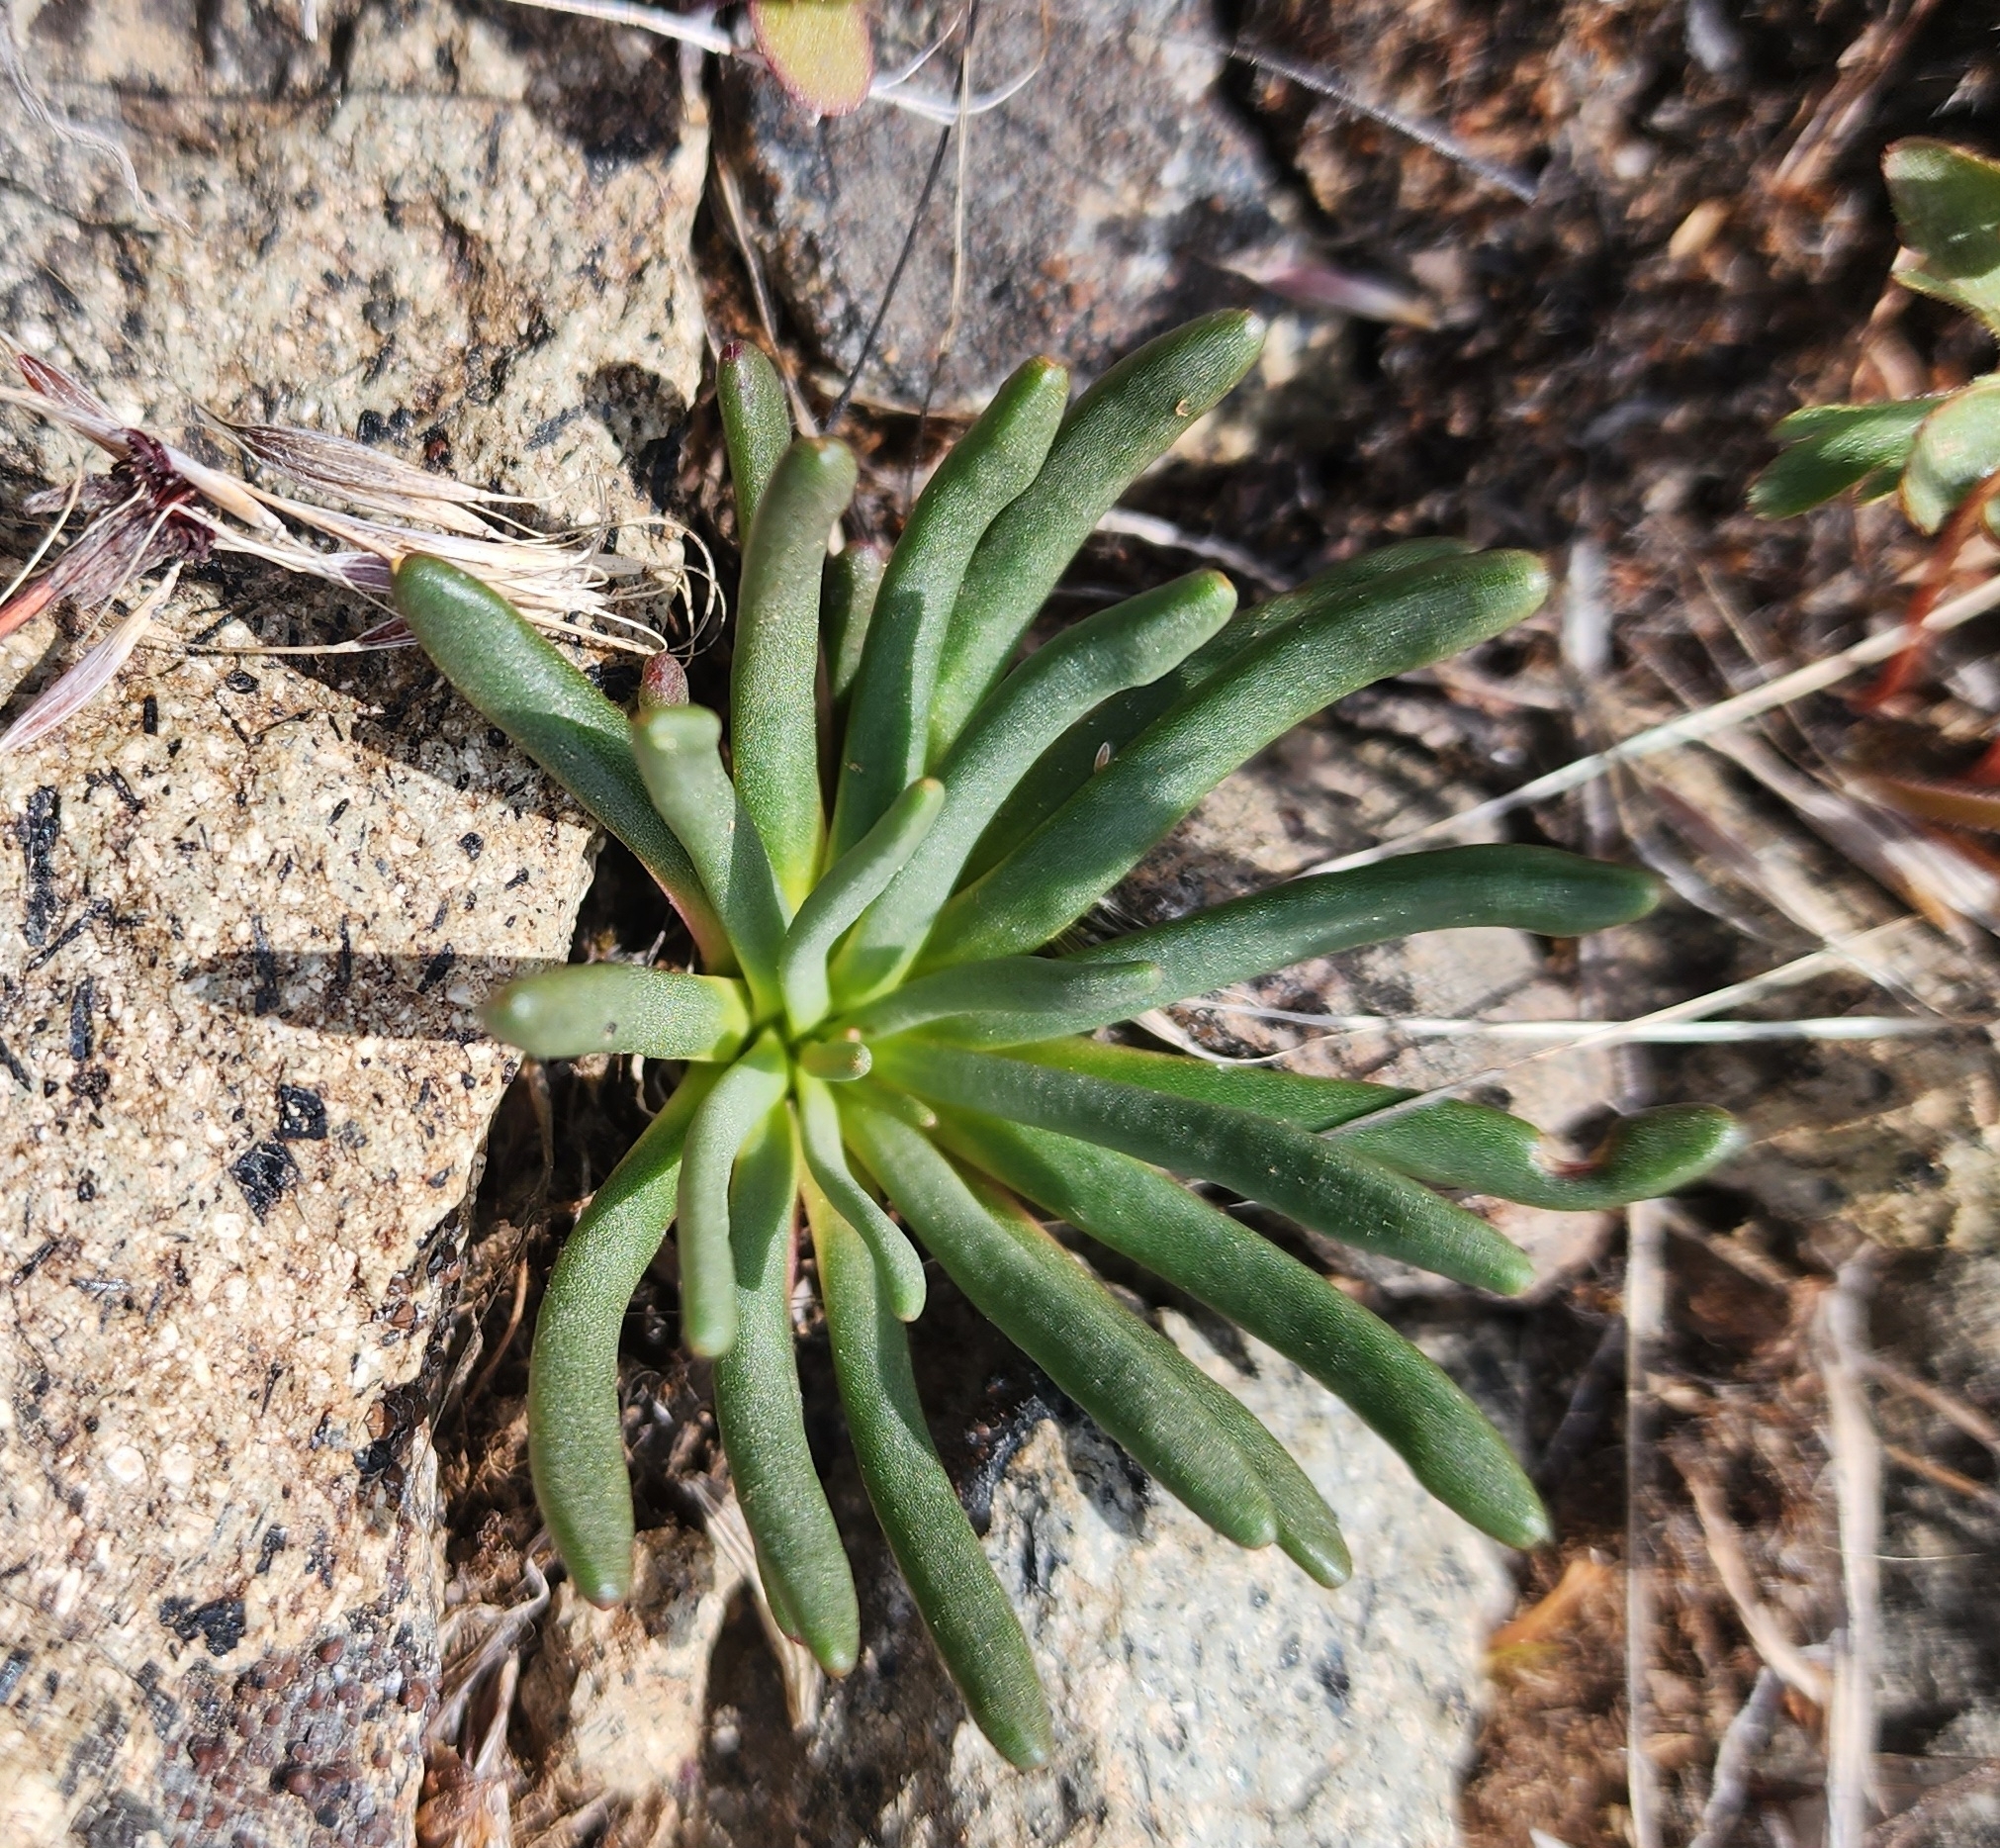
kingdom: Plantae
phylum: Tracheophyta
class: Magnoliopsida
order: Caryophyllales
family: Montiaceae
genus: Lewisia
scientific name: Lewisia rediviva
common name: Bitter-root
